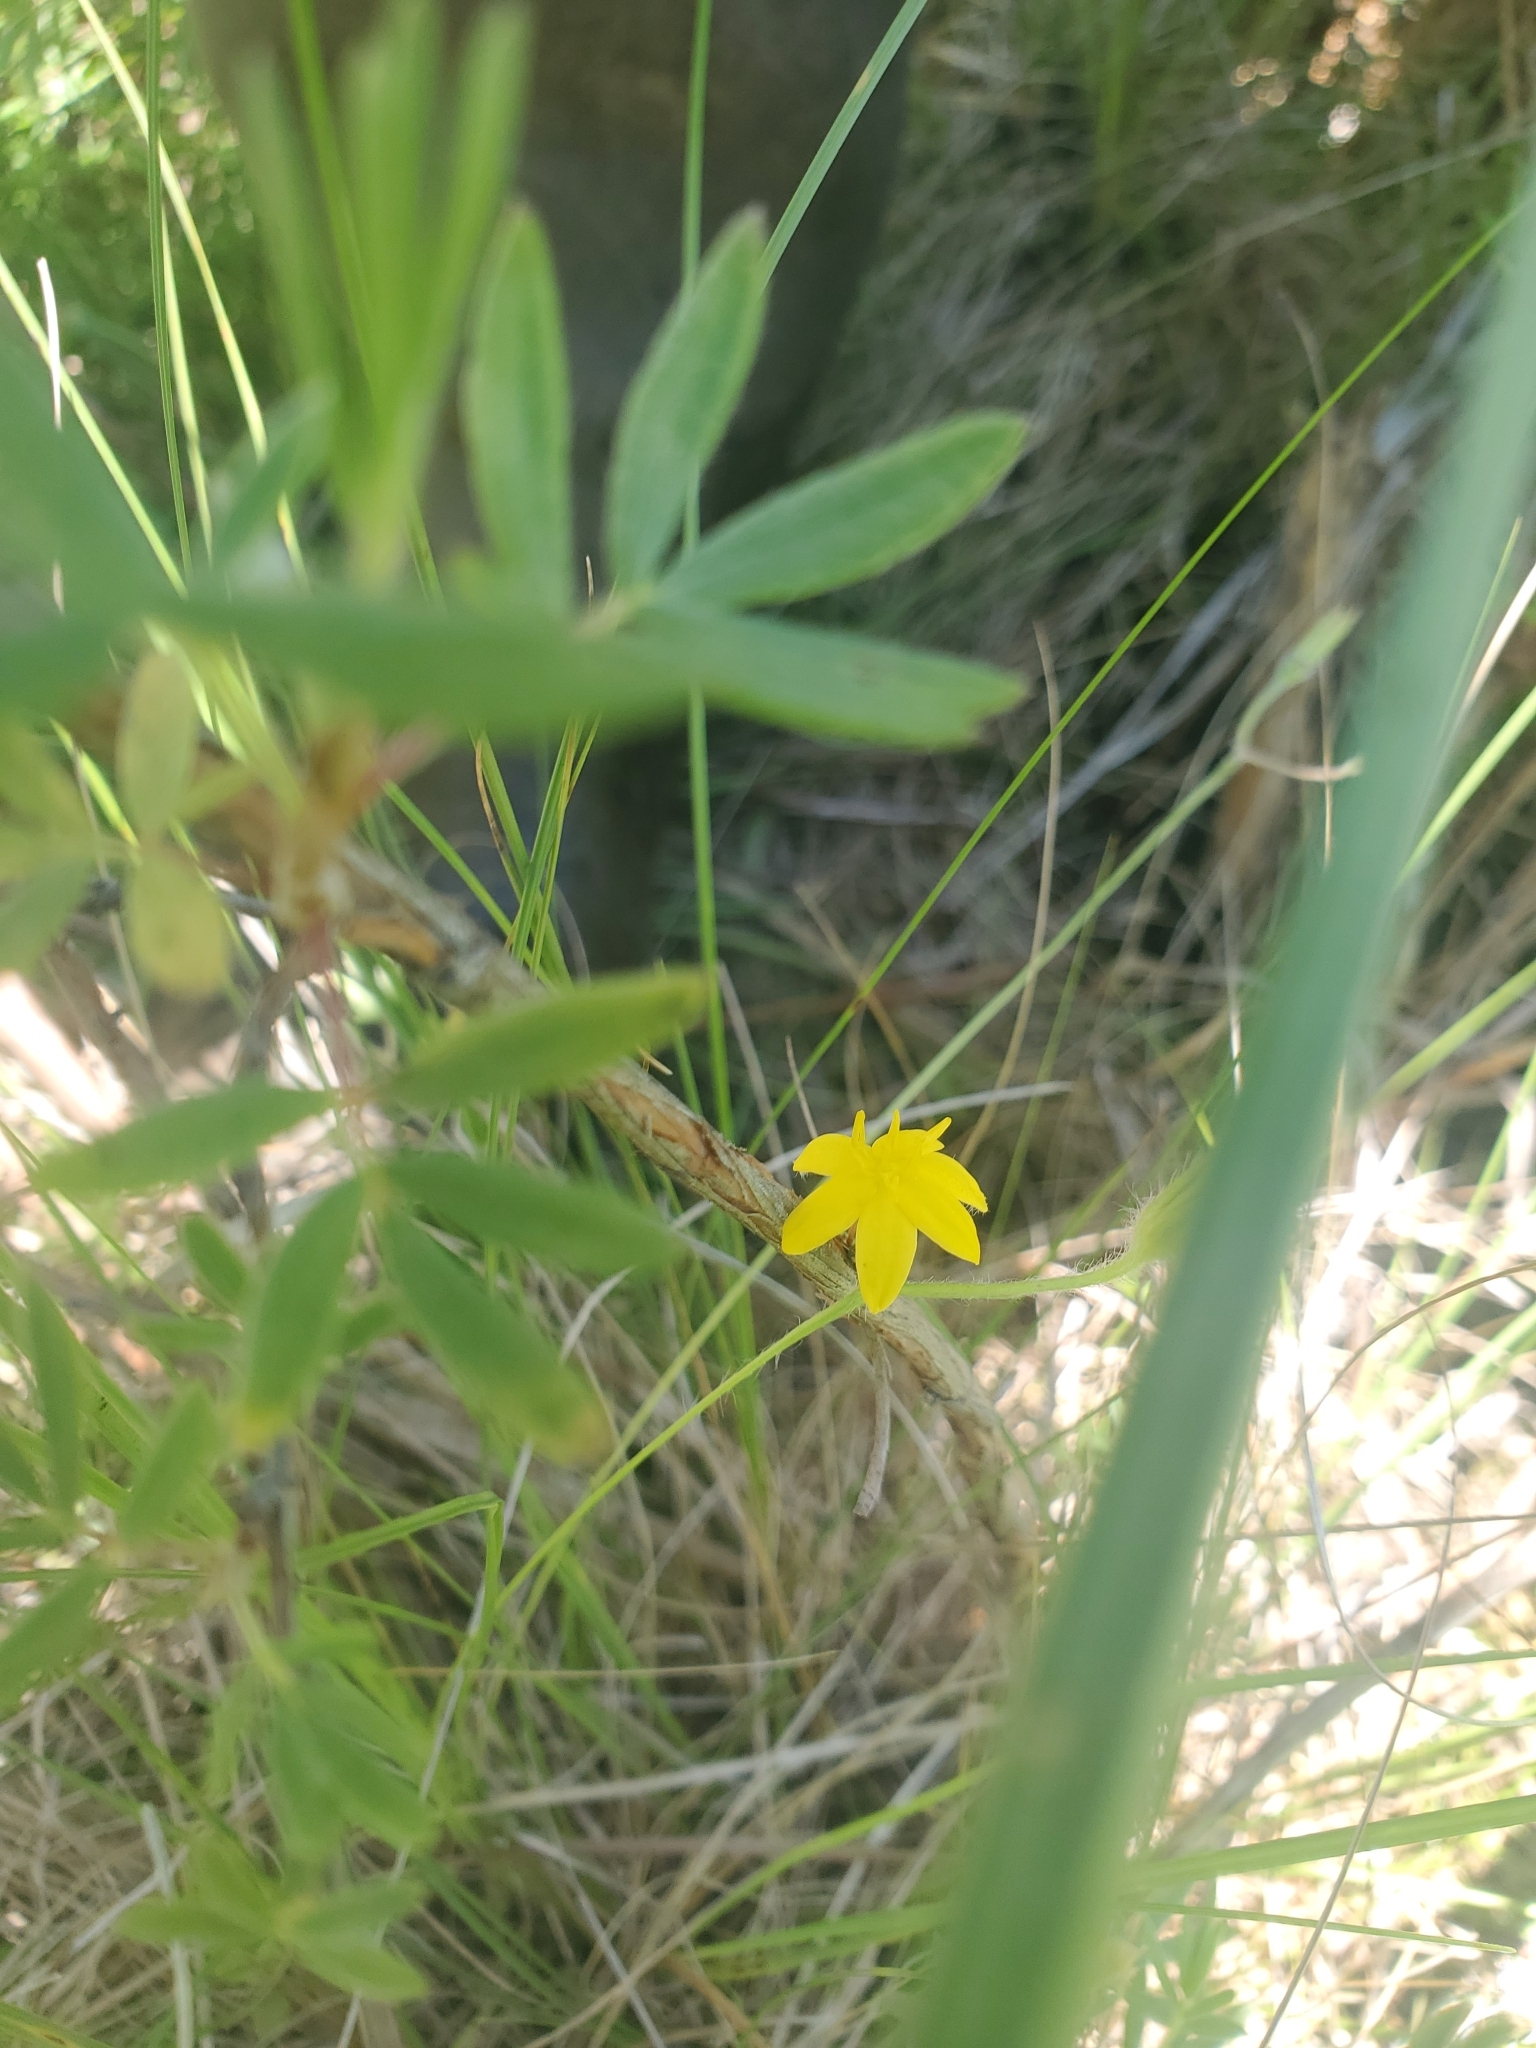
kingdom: Plantae
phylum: Tracheophyta
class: Liliopsida
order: Asparagales
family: Hypoxidaceae
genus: Hypoxis
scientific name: Hypoxis hirsuta
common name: Common goldstar
